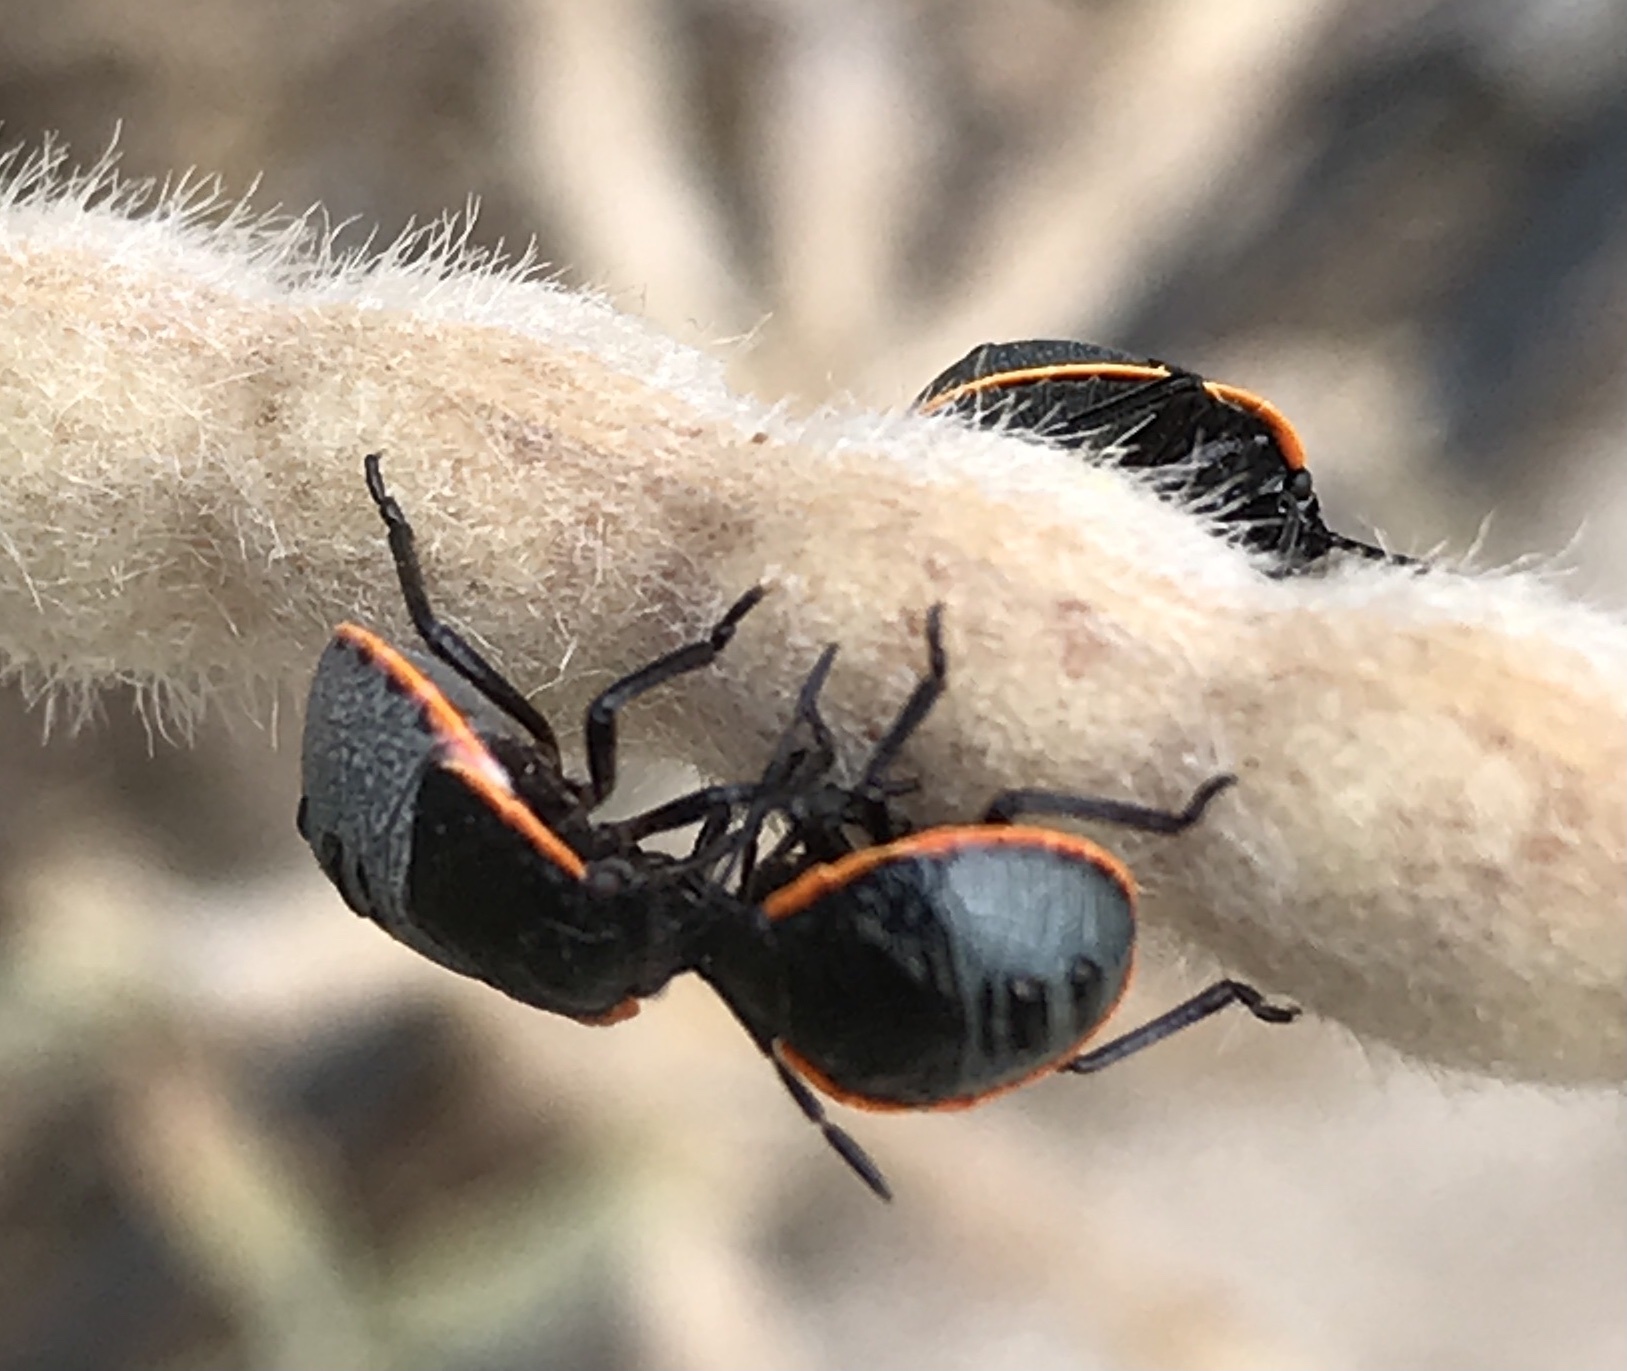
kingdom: Animalia
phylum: Arthropoda
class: Insecta
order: Hemiptera
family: Pentatomidae
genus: Chlorochroa
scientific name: Chlorochroa ligata
